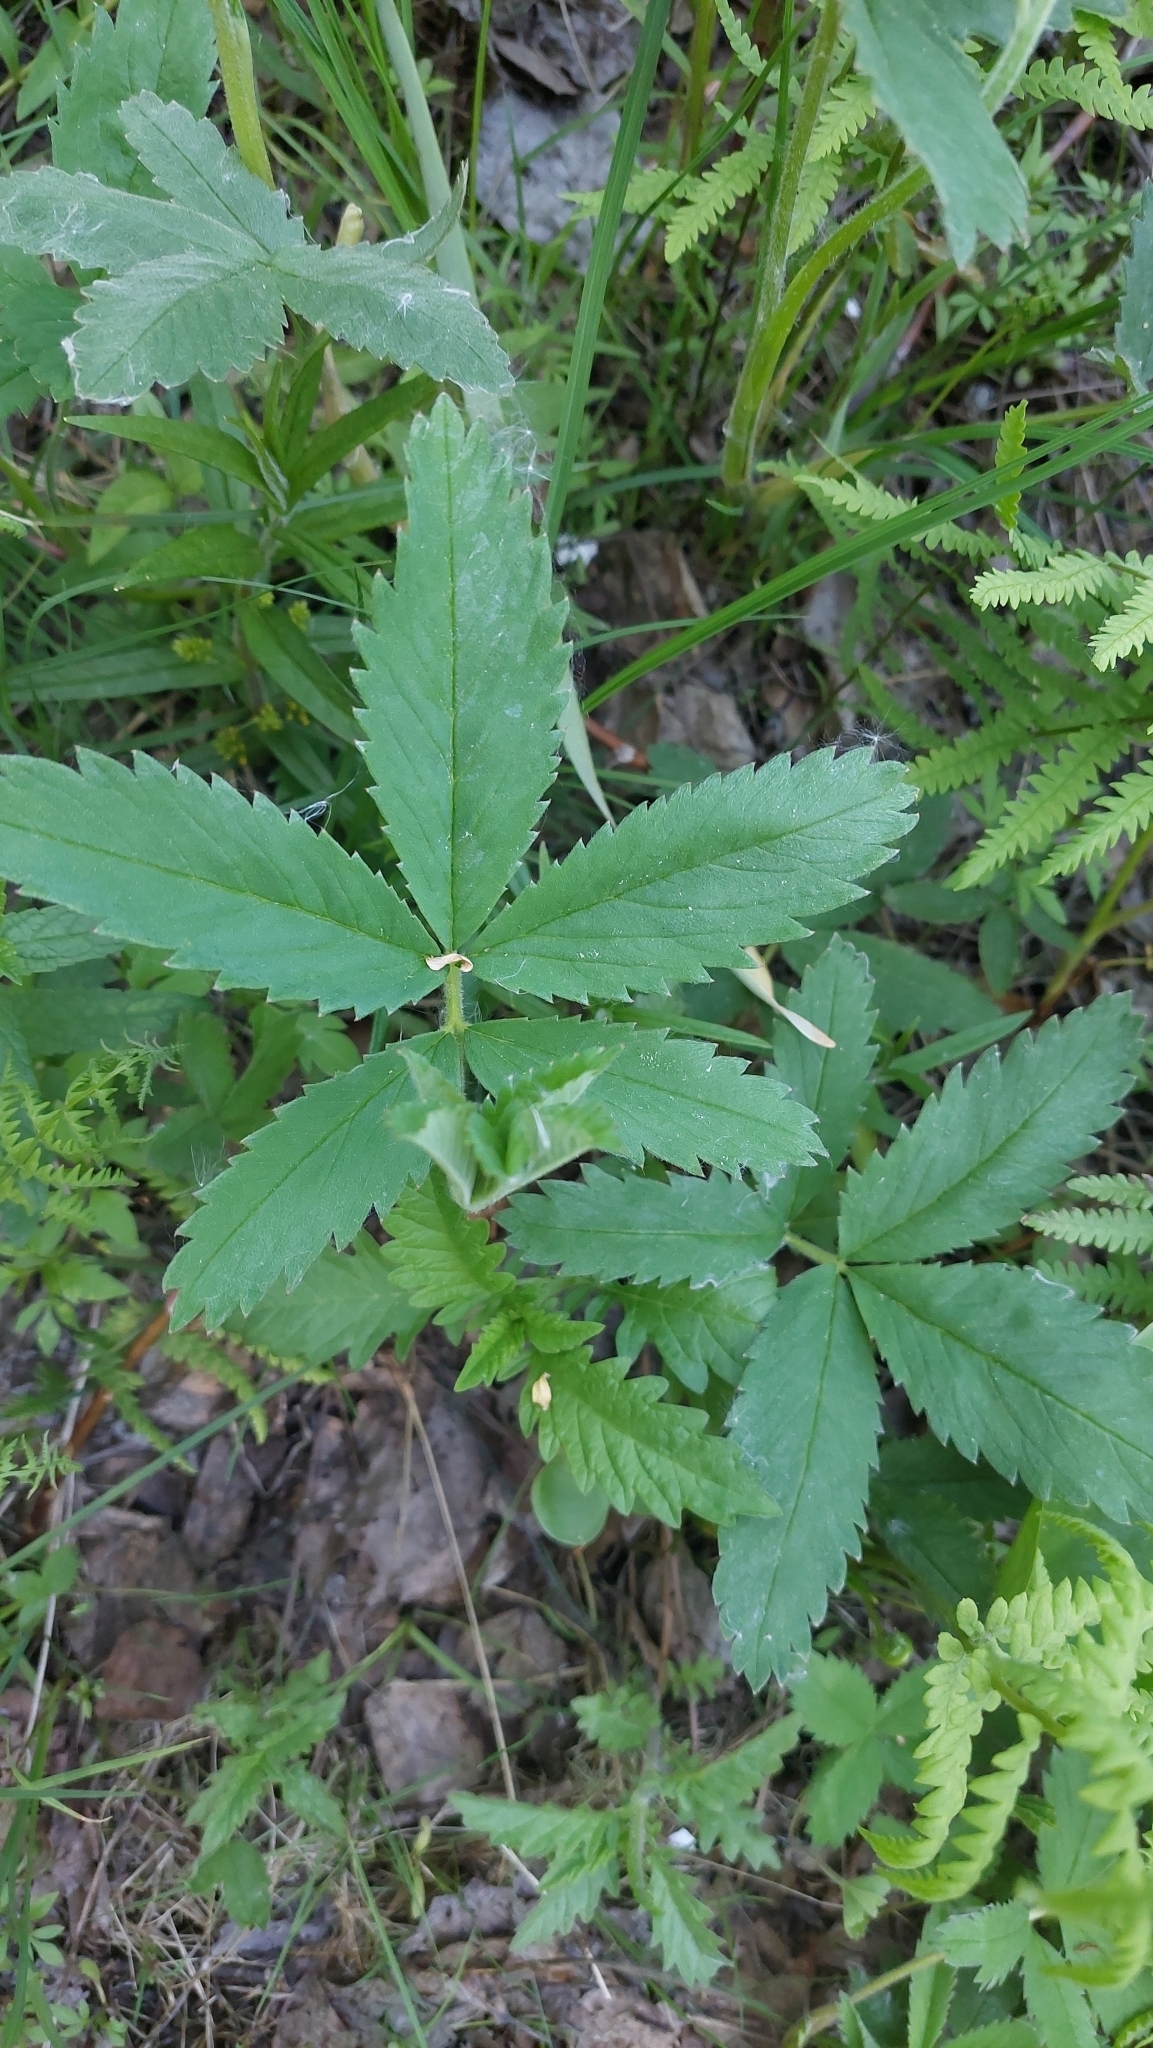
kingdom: Plantae
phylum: Tracheophyta
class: Magnoliopsida
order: Rosales
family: Rosaceae
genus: Comarum
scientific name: Comarum palustre
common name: Marsh cinquefoil
